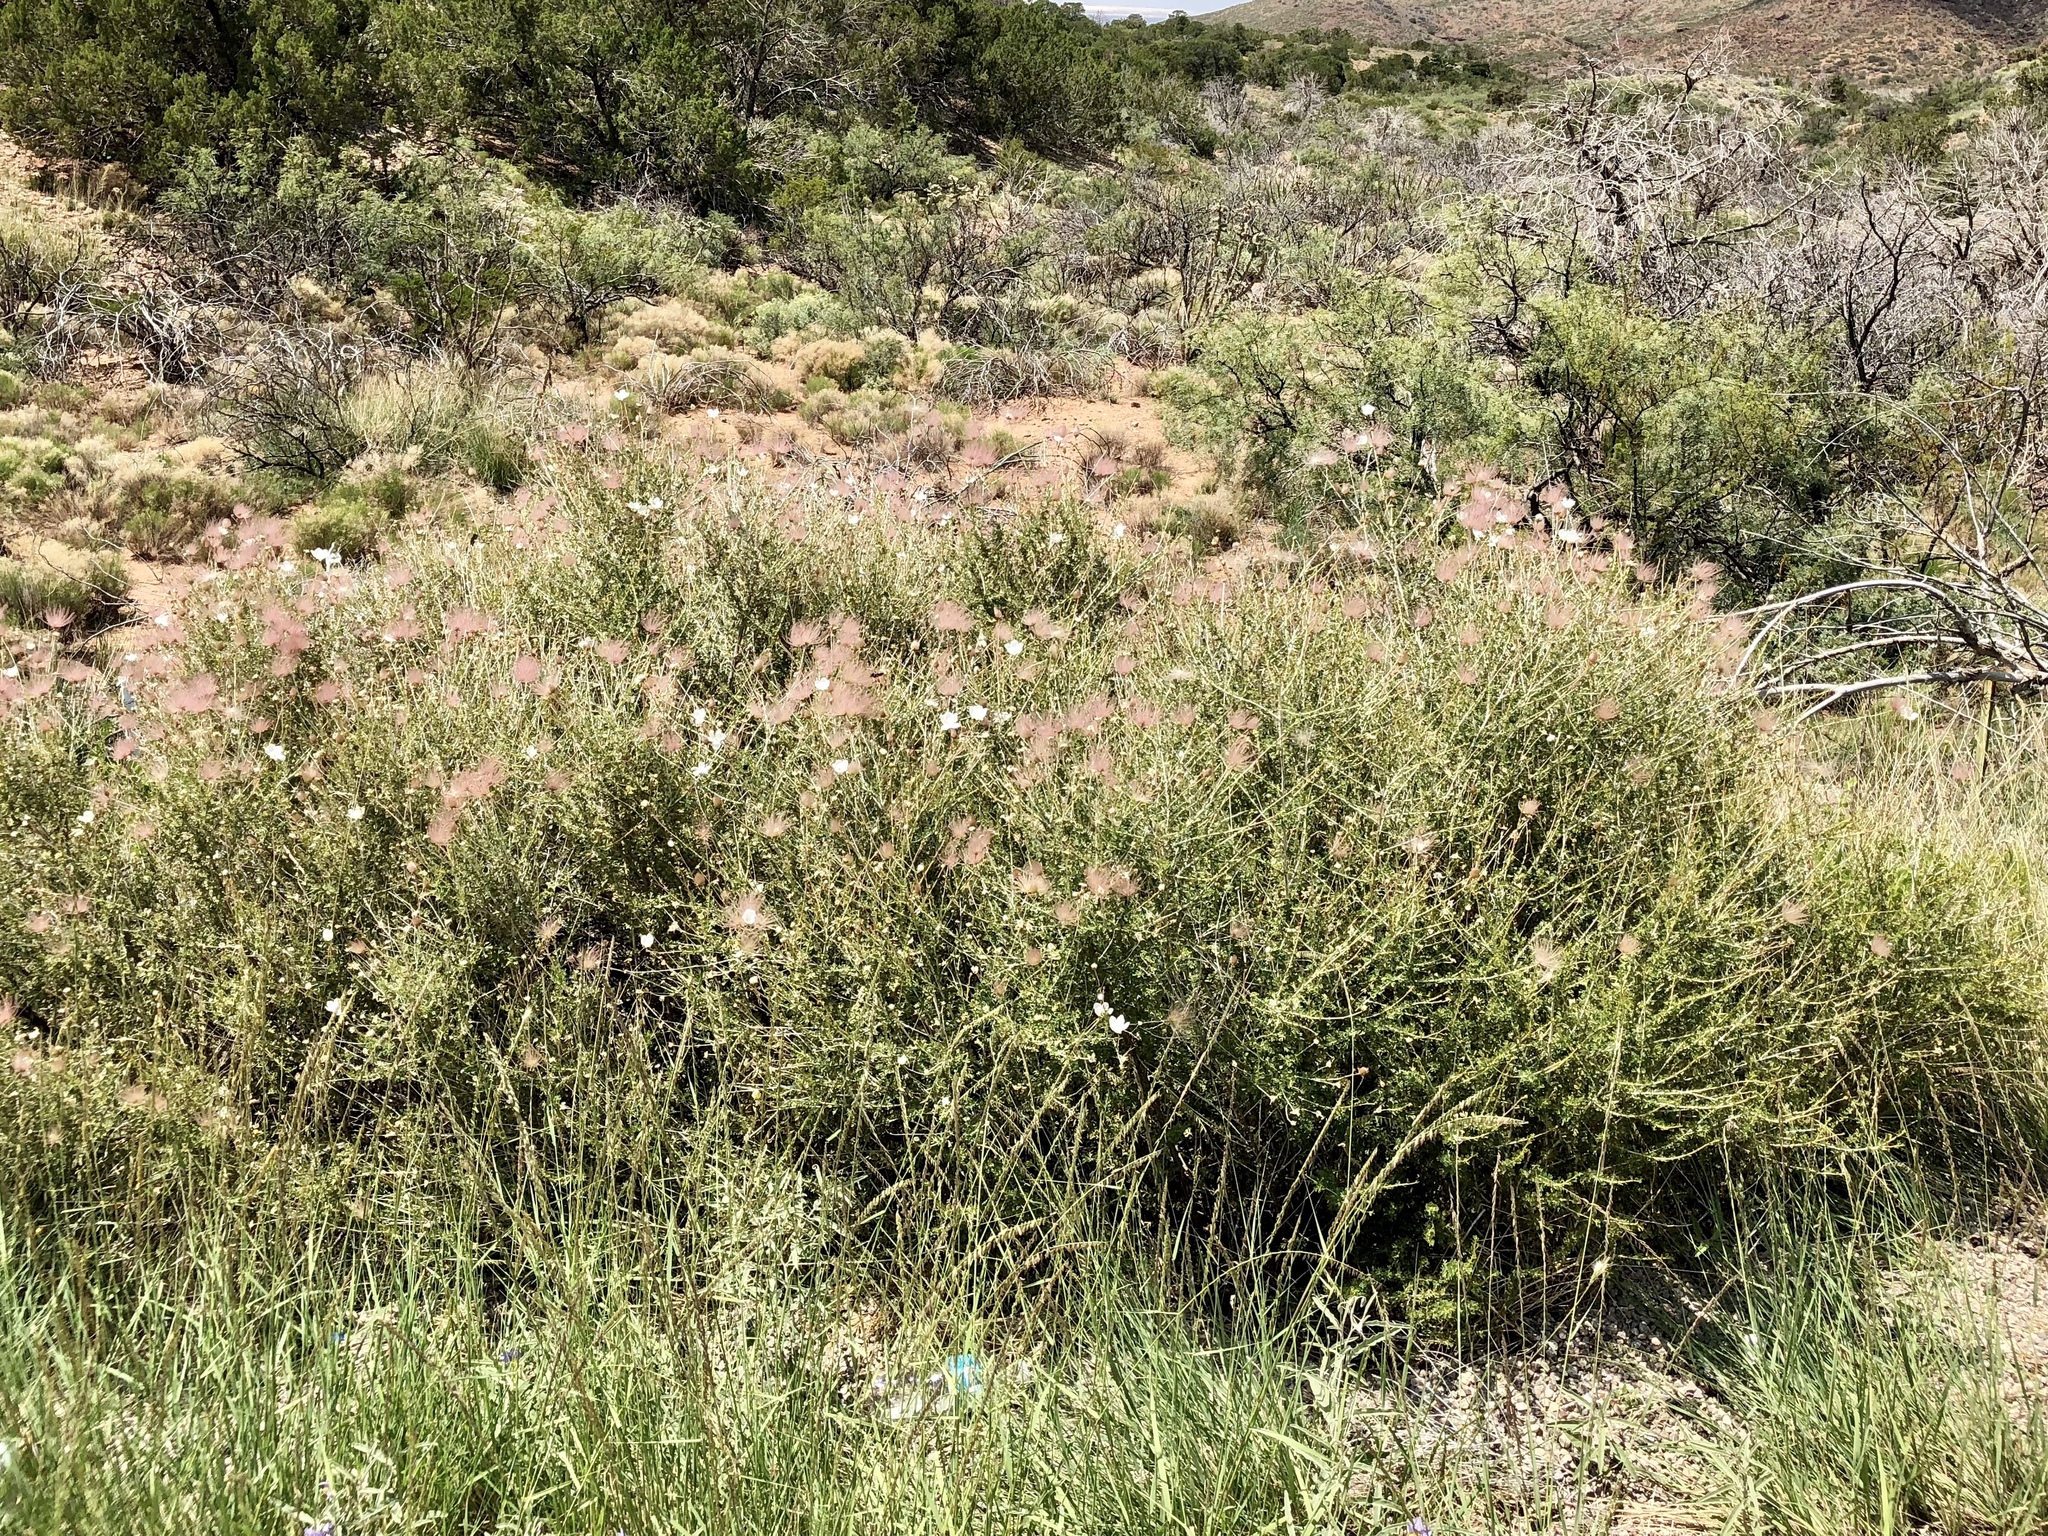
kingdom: Plantae
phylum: Tracheophyta
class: Magnoliopsida
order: Rosales
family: Rosaceae
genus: Fallugia
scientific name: Fallugia paradoxa
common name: Apache-plume
